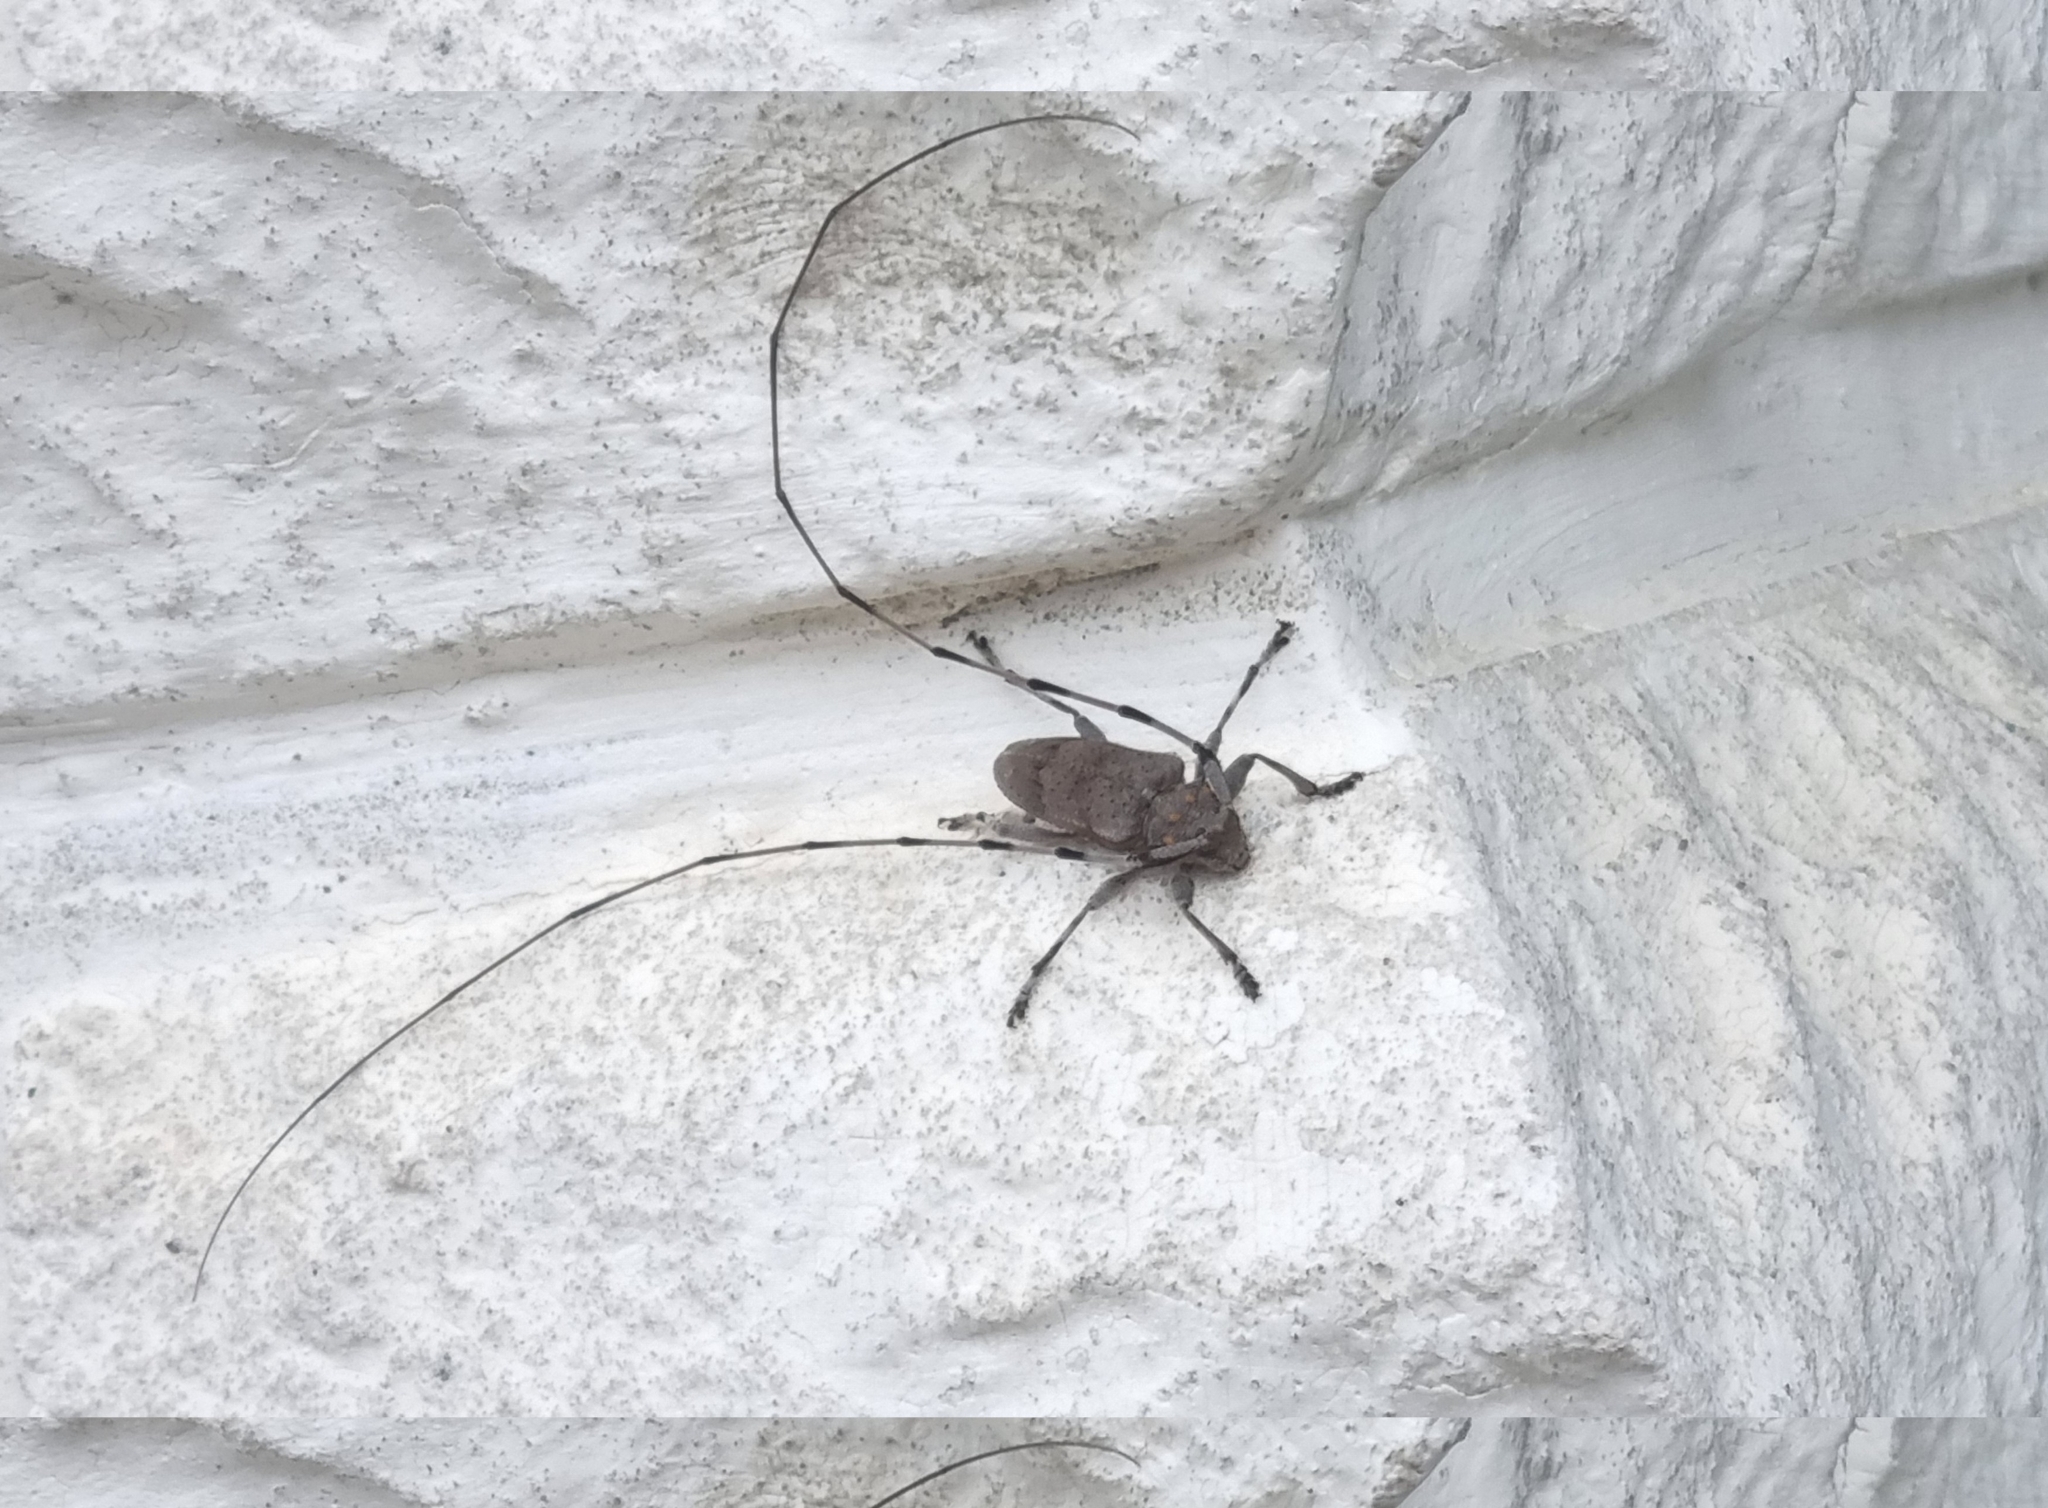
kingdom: Animalia
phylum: Arthropoda
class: Insecta
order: Coleoptera
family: Cerambycidae
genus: Acanthocinus
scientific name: Acanthocinus aedilis
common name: Timberman beetle
